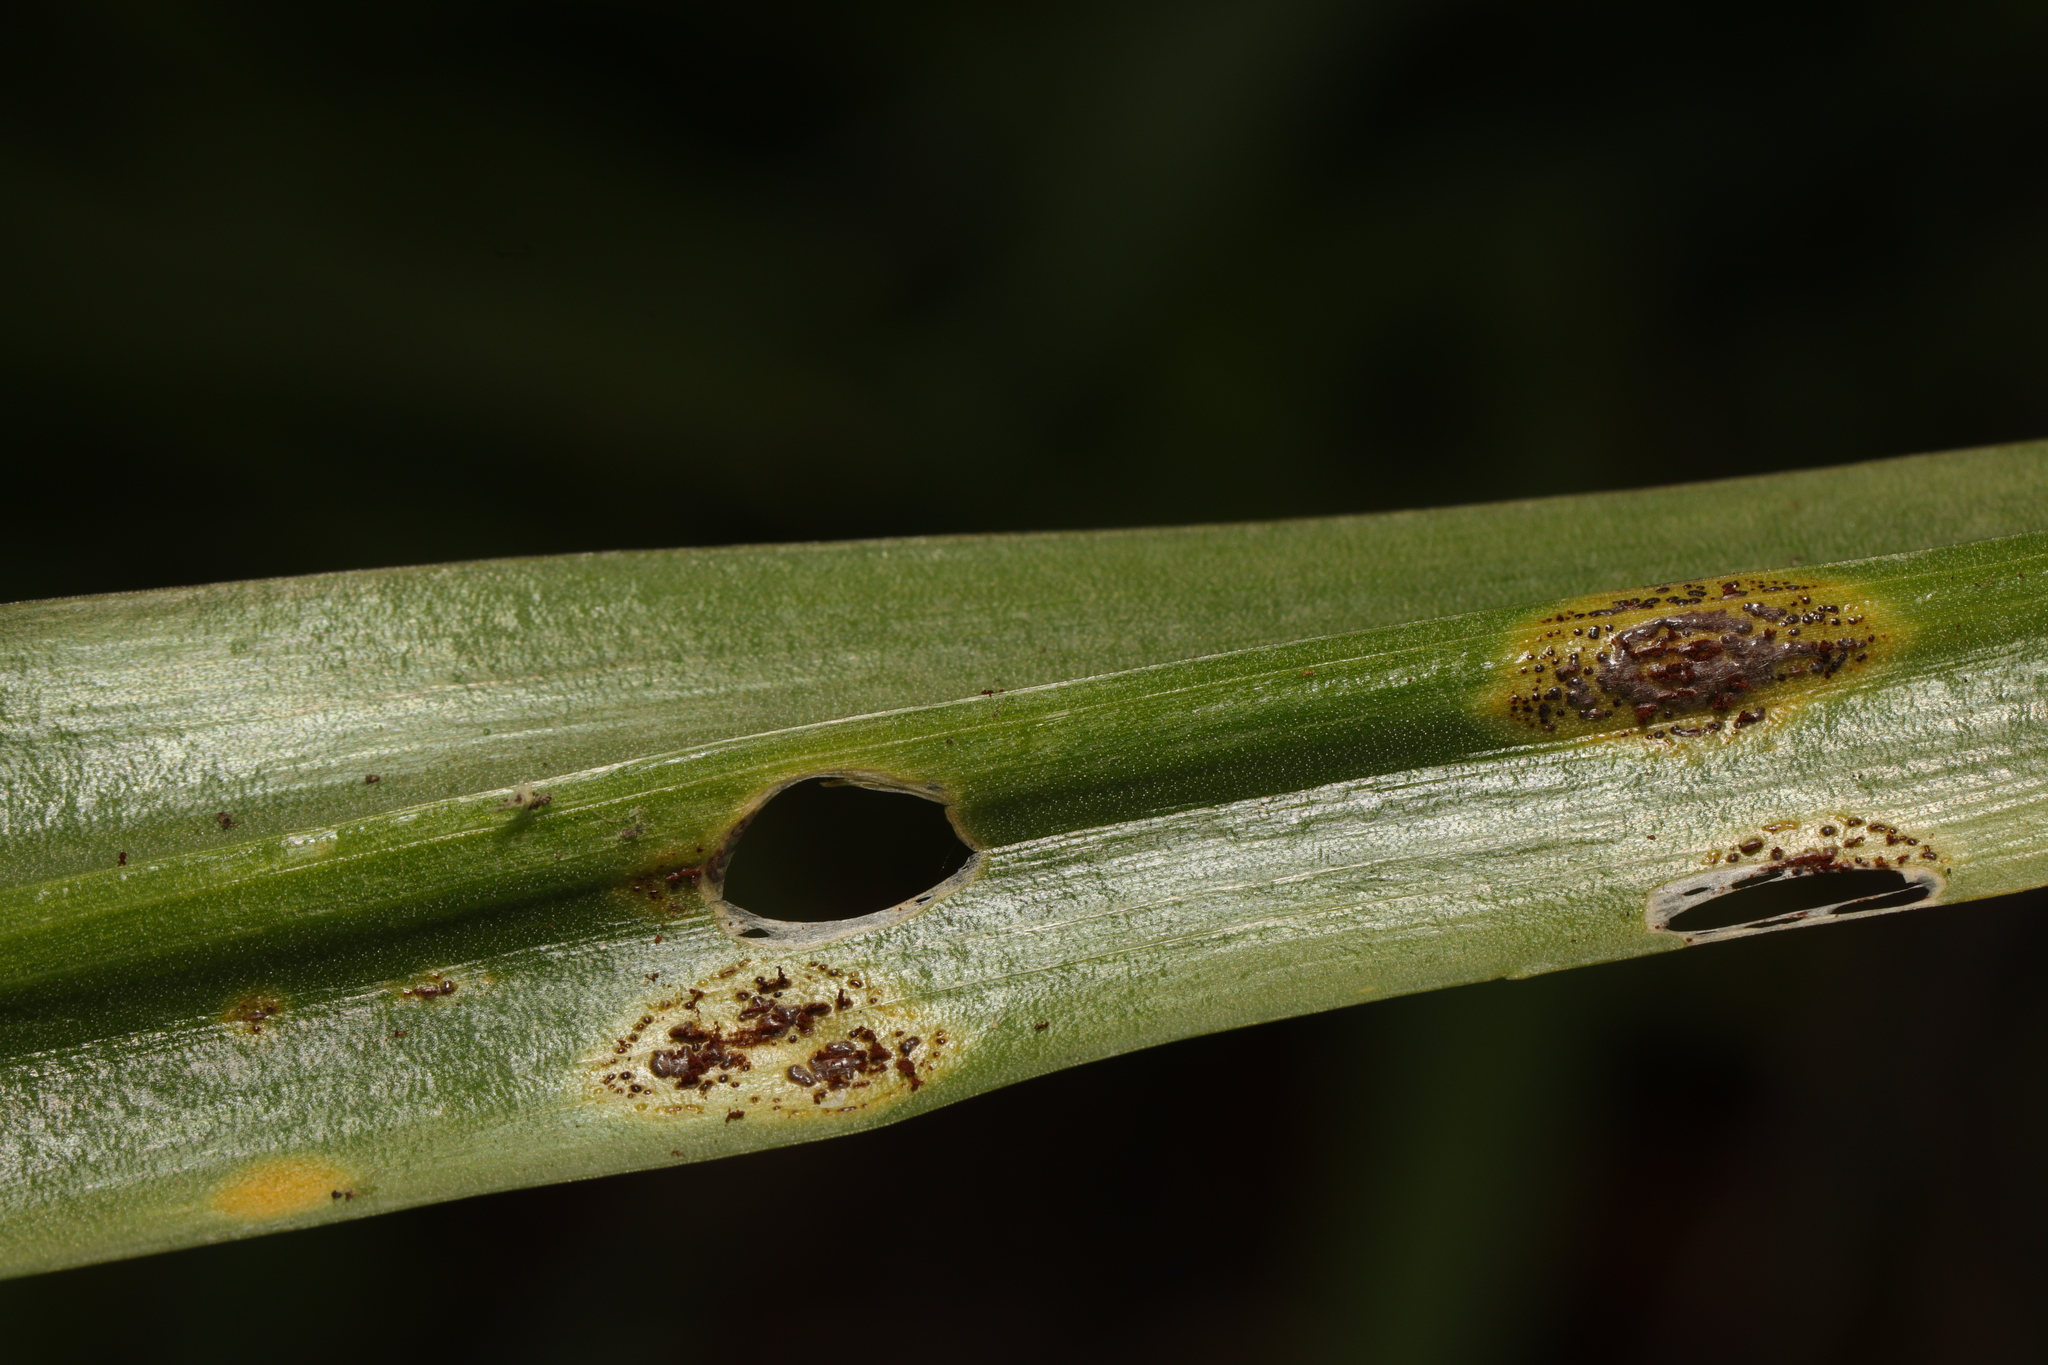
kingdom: Fungi
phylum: Basidiomycota
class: Pucciniomycetes
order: Pucciniales
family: Pucciniaceae
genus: Uromyces
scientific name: Uromyces hyacinthi
